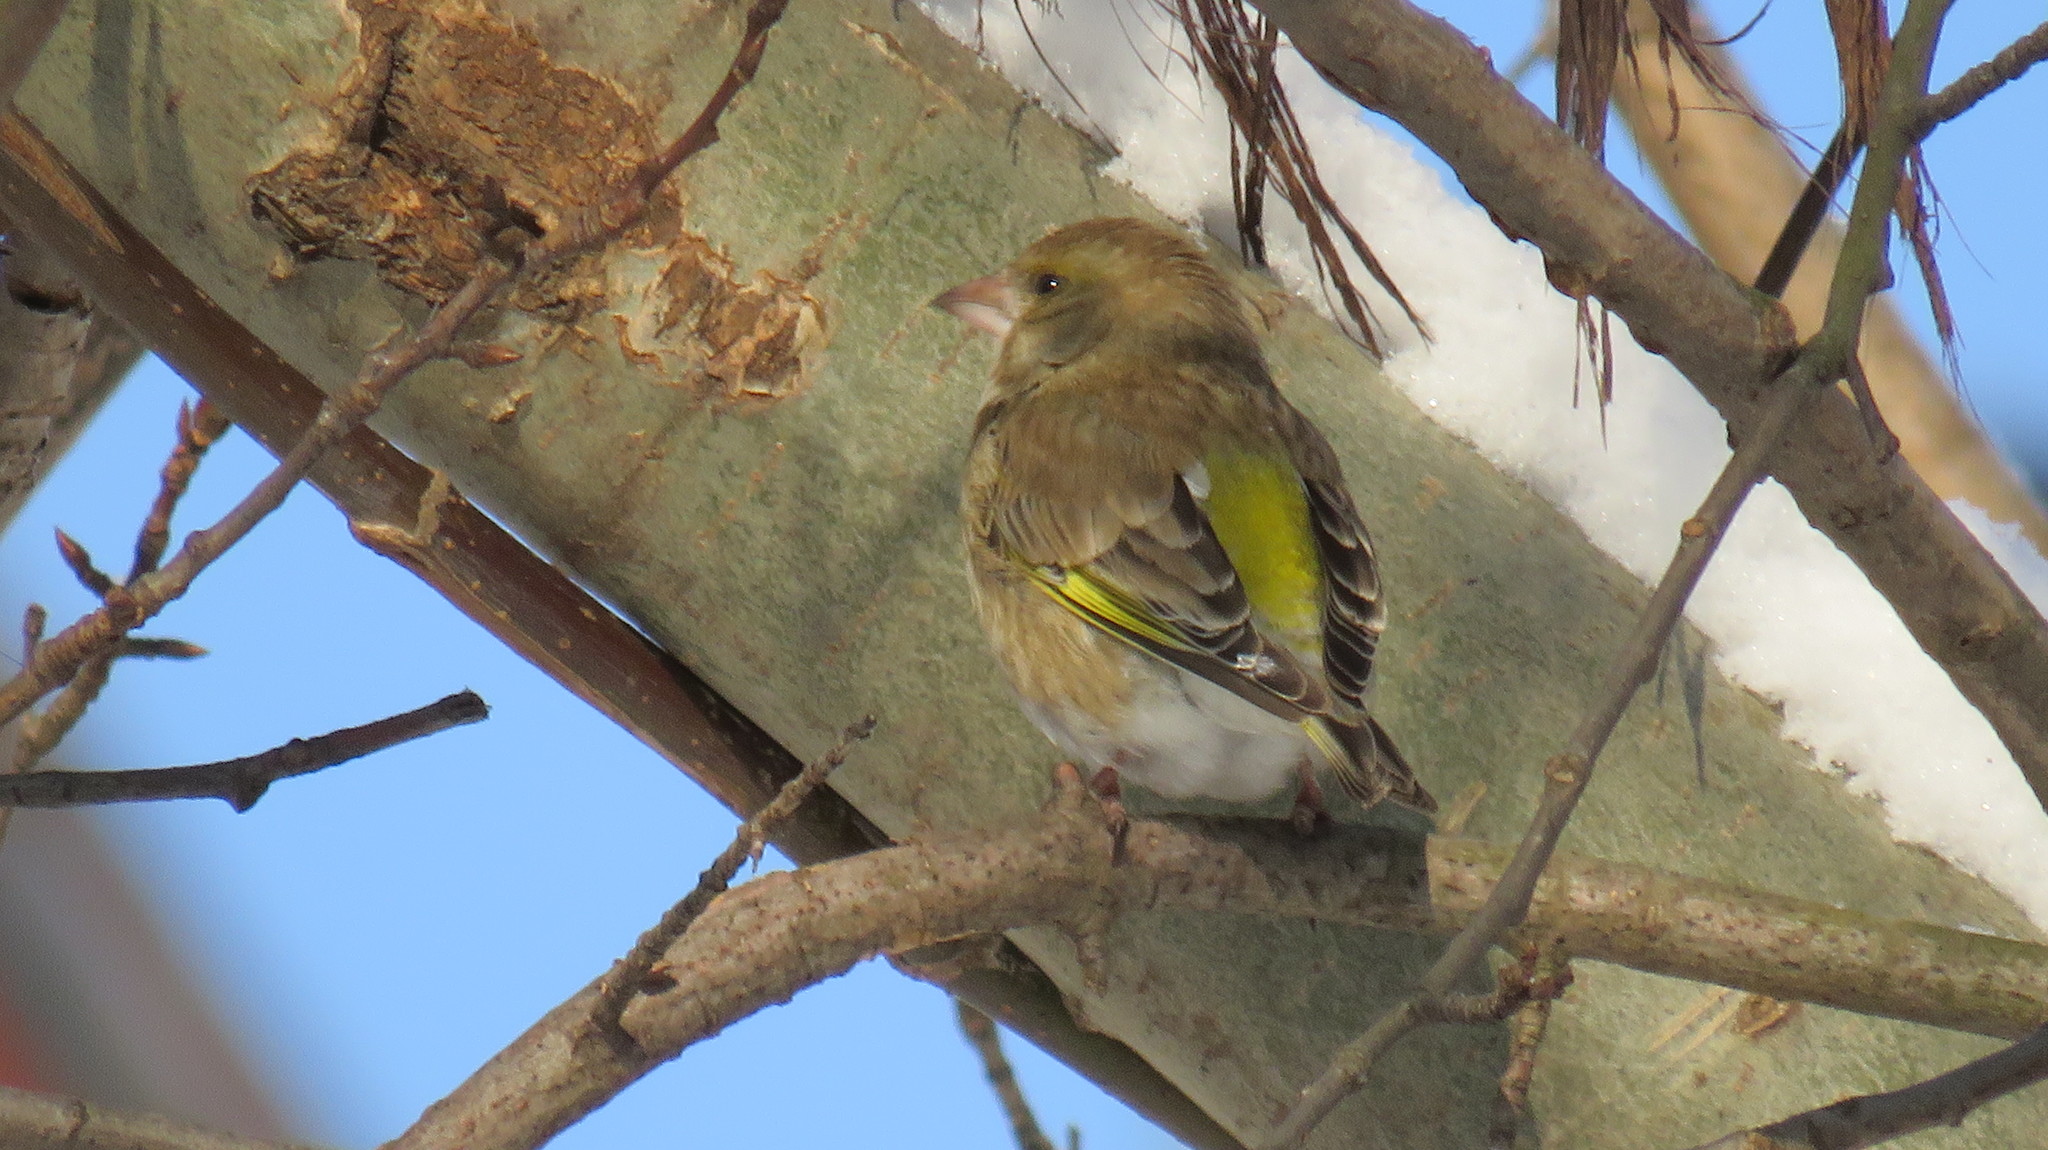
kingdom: Plantae
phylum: Tracheophyta
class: Liliopsida
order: Poales
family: Poaceae
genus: Chloris
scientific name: Chloris chloris
